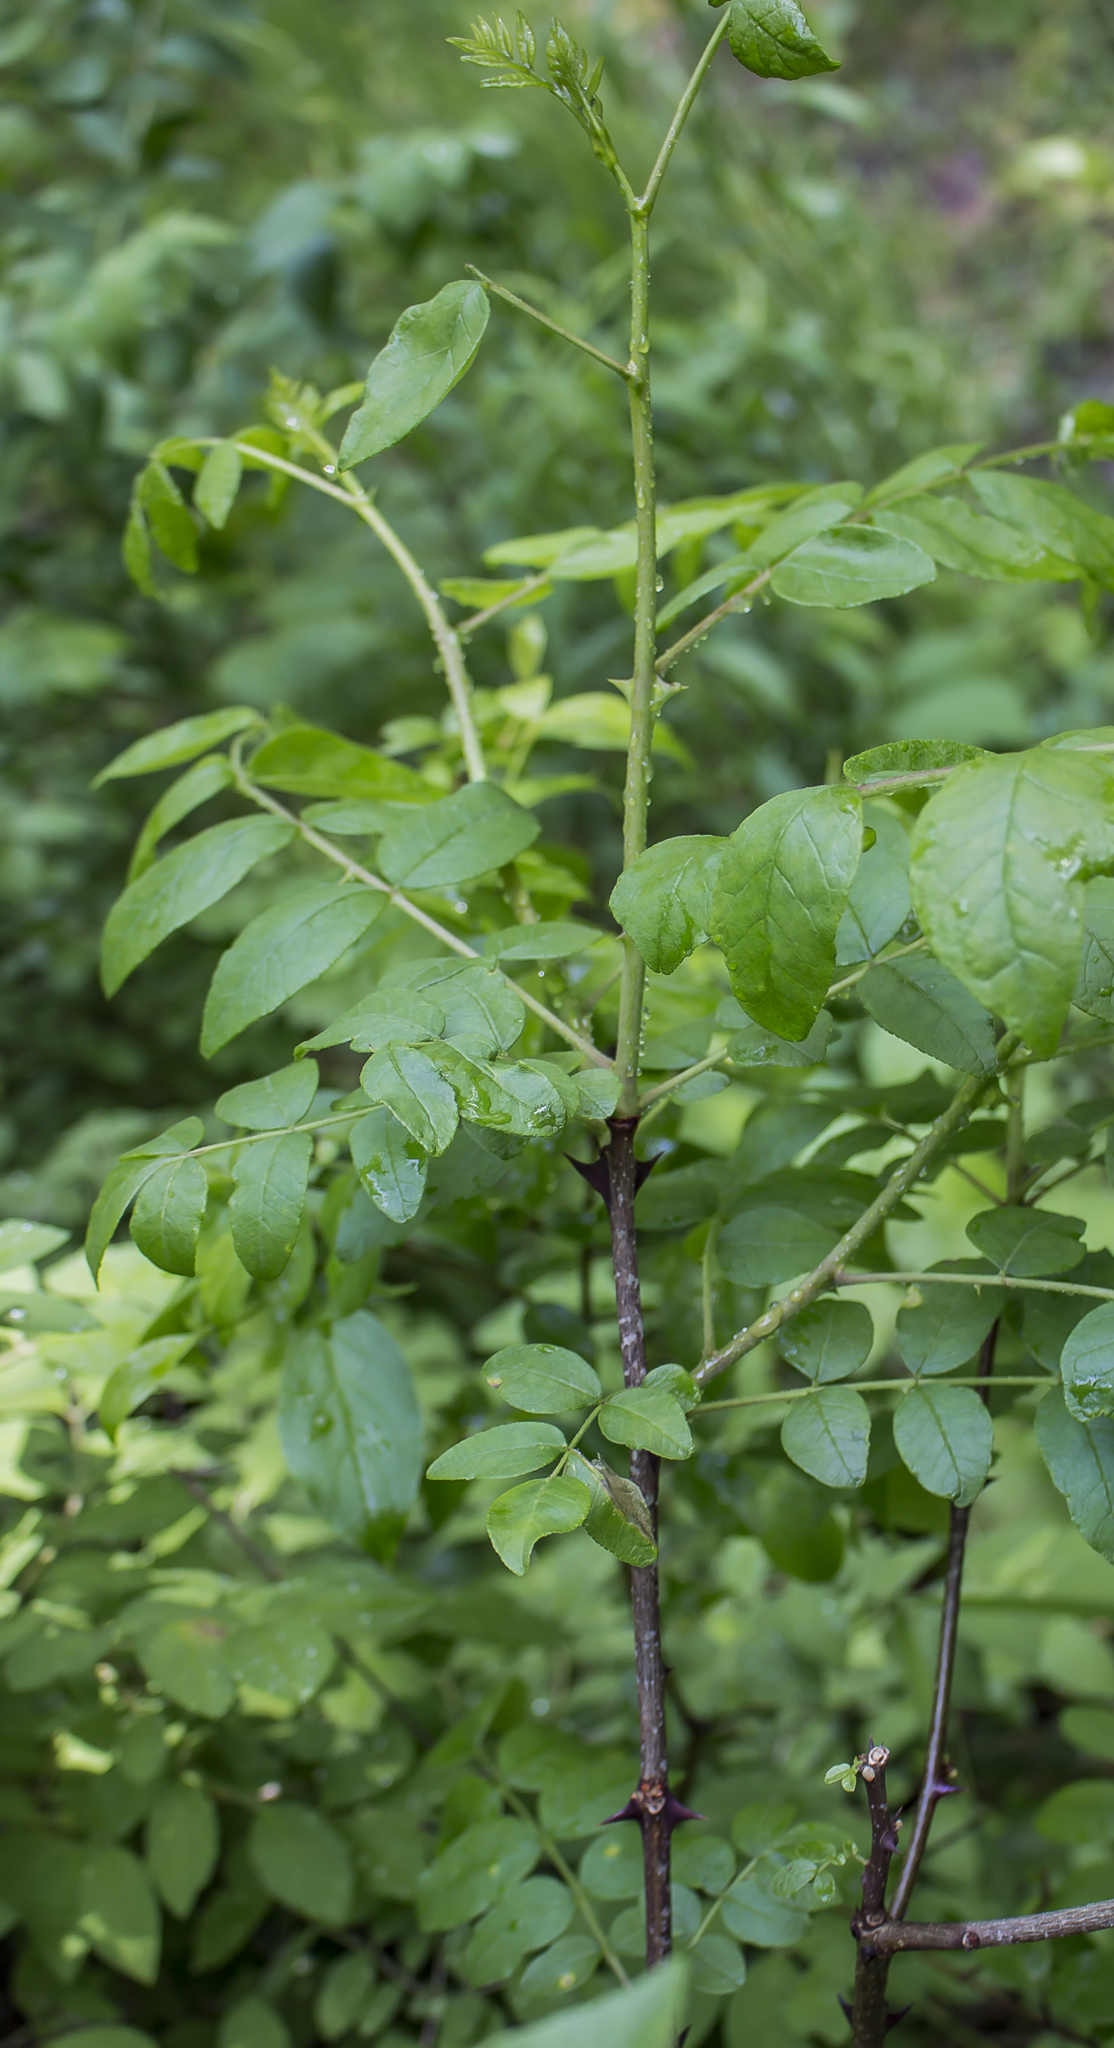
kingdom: Plantae
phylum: Tracheophyta
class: Magnoliopsida
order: Sapindales
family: Rutaceae
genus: Zanthoxylum
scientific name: Zanthoxylum americanum
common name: Northern prickly-ash
